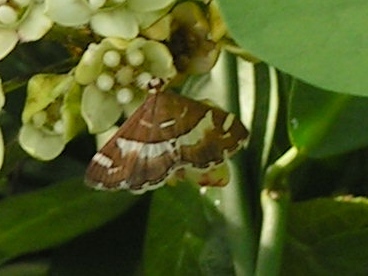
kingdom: Animalia
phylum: Arthropoda
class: Insecta
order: Lepidoptera
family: Crambidae
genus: Spoladea
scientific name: Spoladea recurvalis
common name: Beet webworm moth
